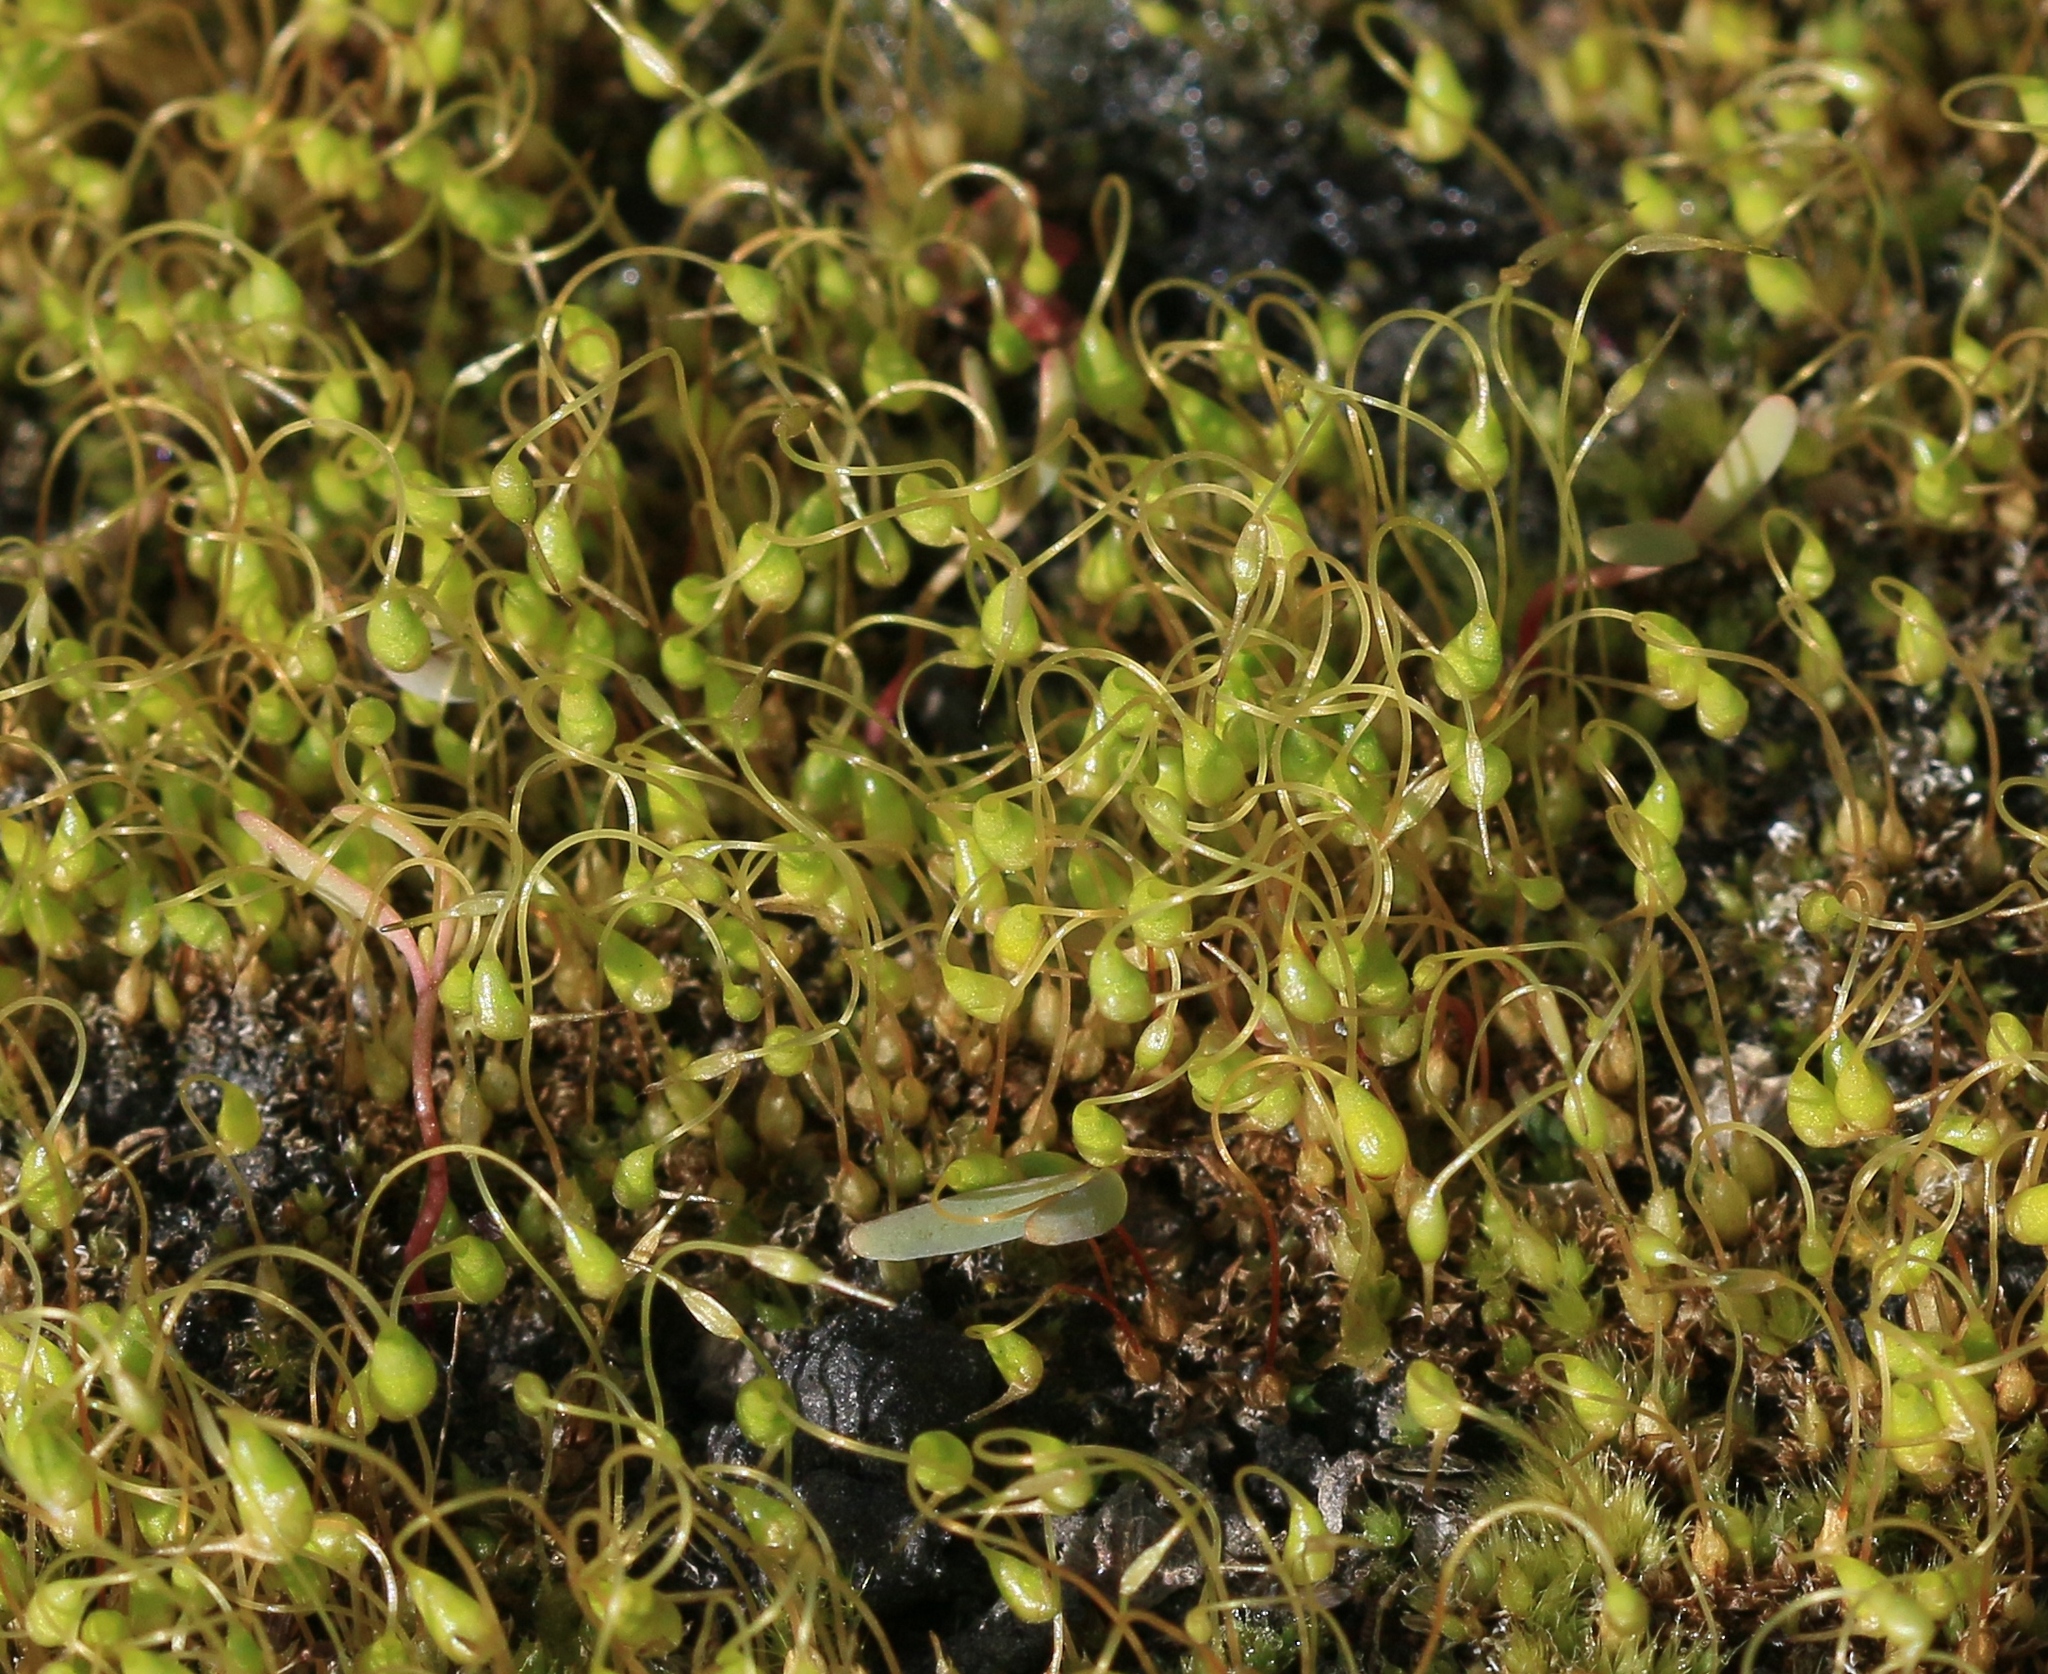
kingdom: Plantae
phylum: Bryophyta
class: Bryopsida
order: Funariales
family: Funariaceae
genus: Funaria
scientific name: Funaria hygrometrica
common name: Common cord moss
